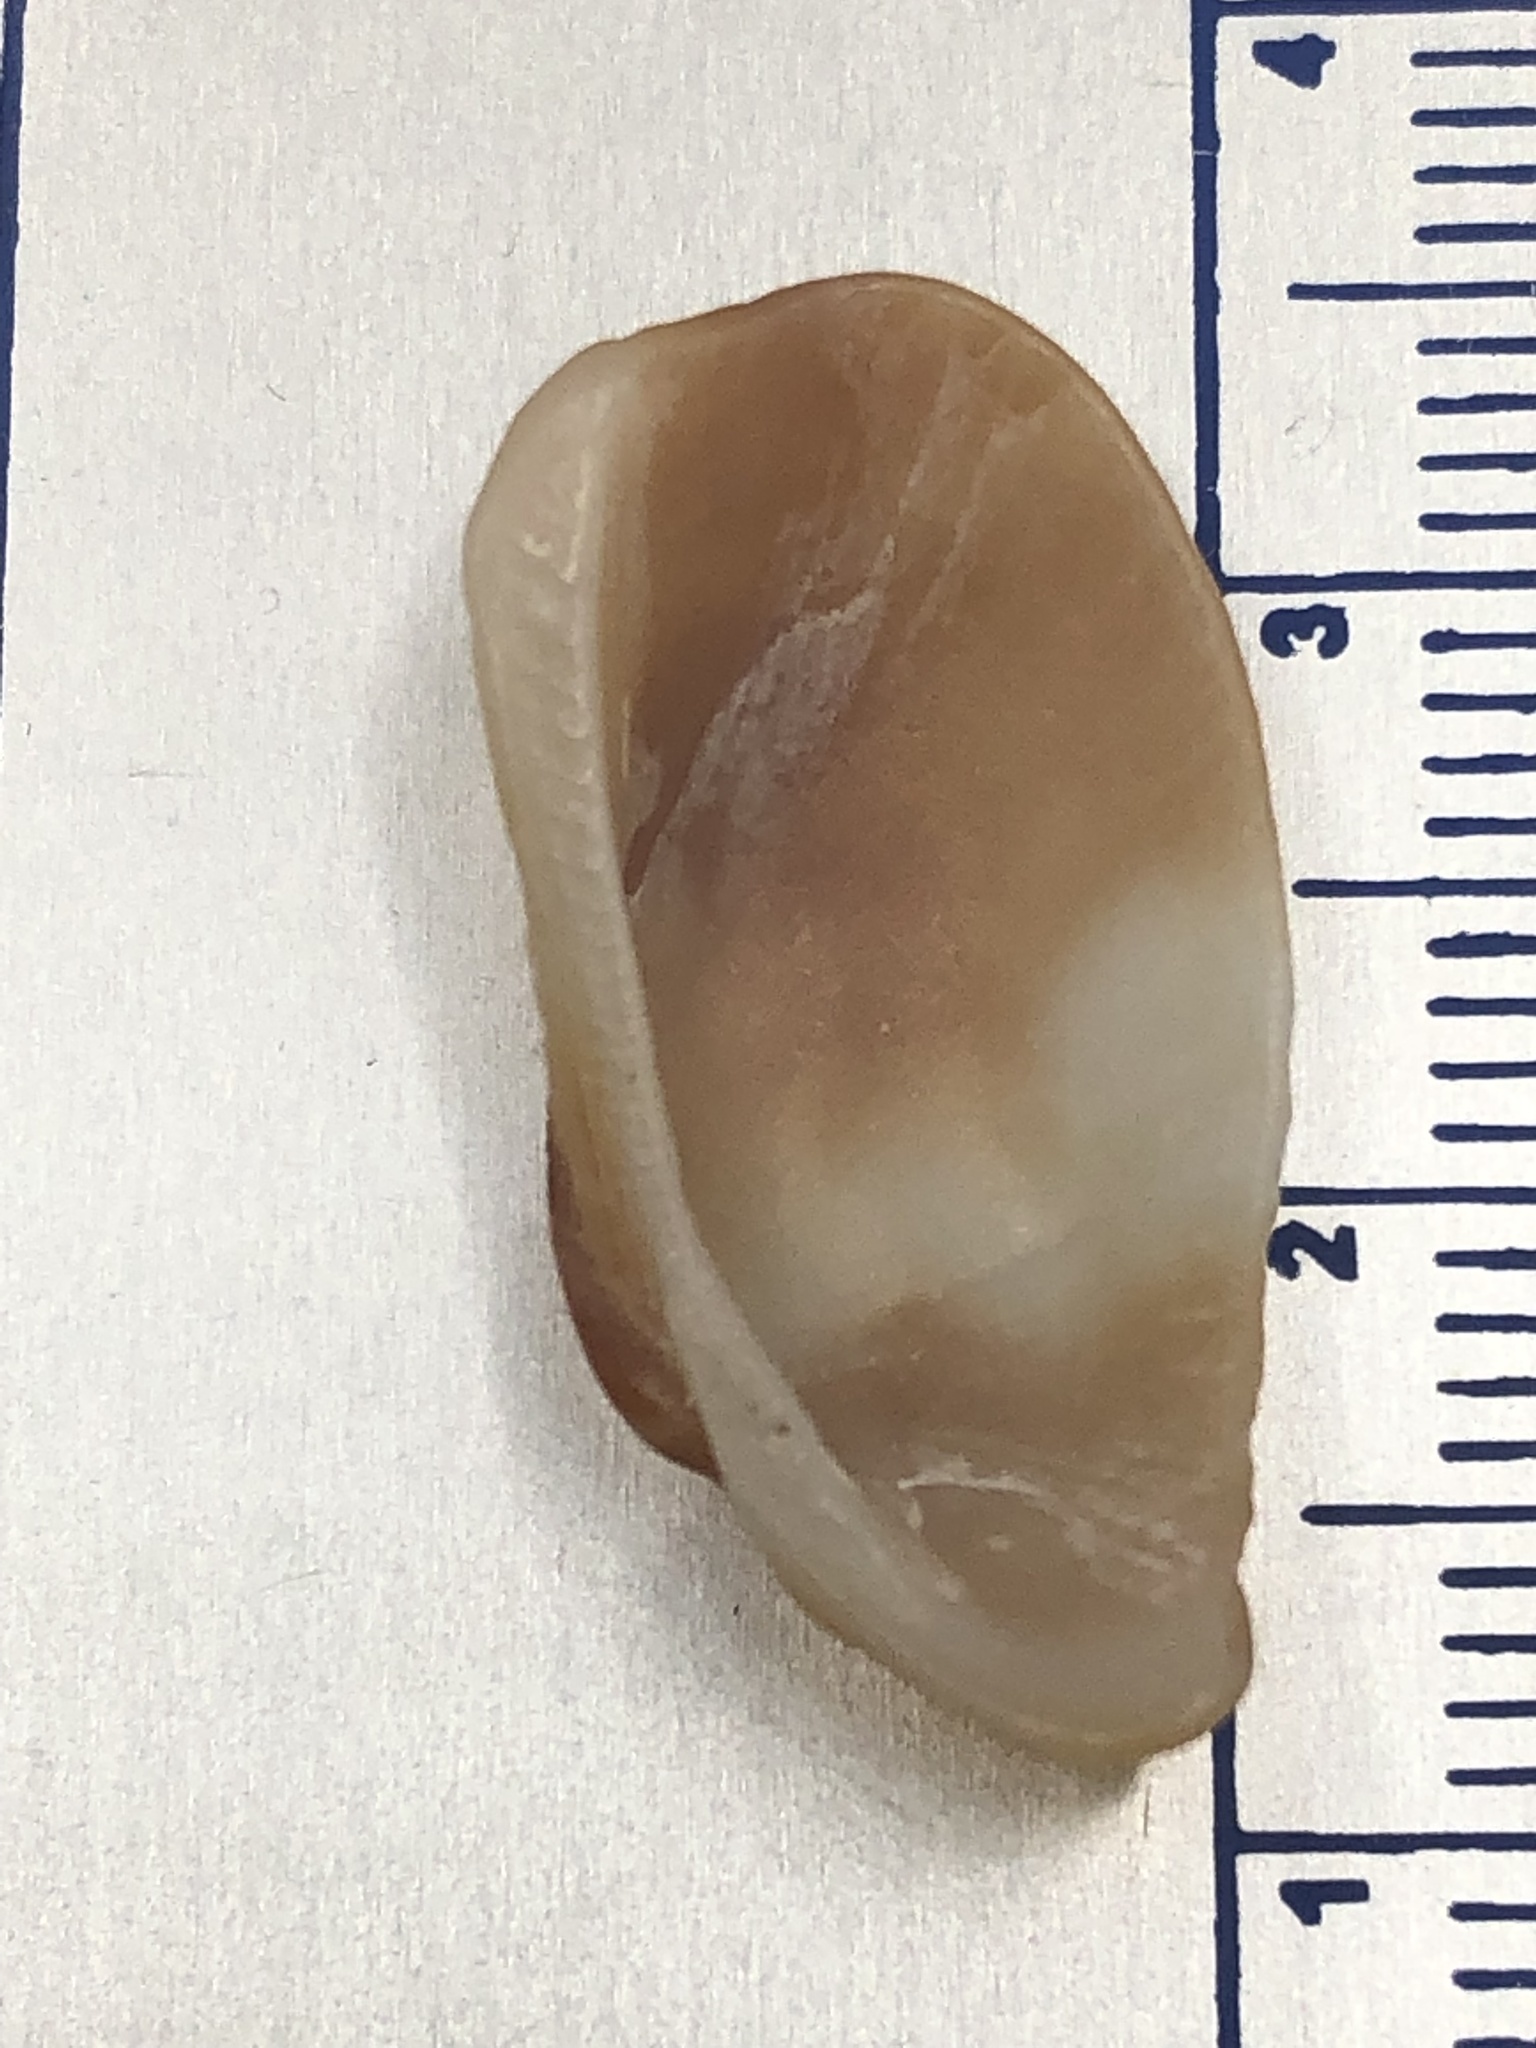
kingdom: Animalia
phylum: Mollusca
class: Bivalvia
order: Arcida
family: Arcidae
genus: Barbatia
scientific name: Barbatia domingensis
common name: White miniature ark
